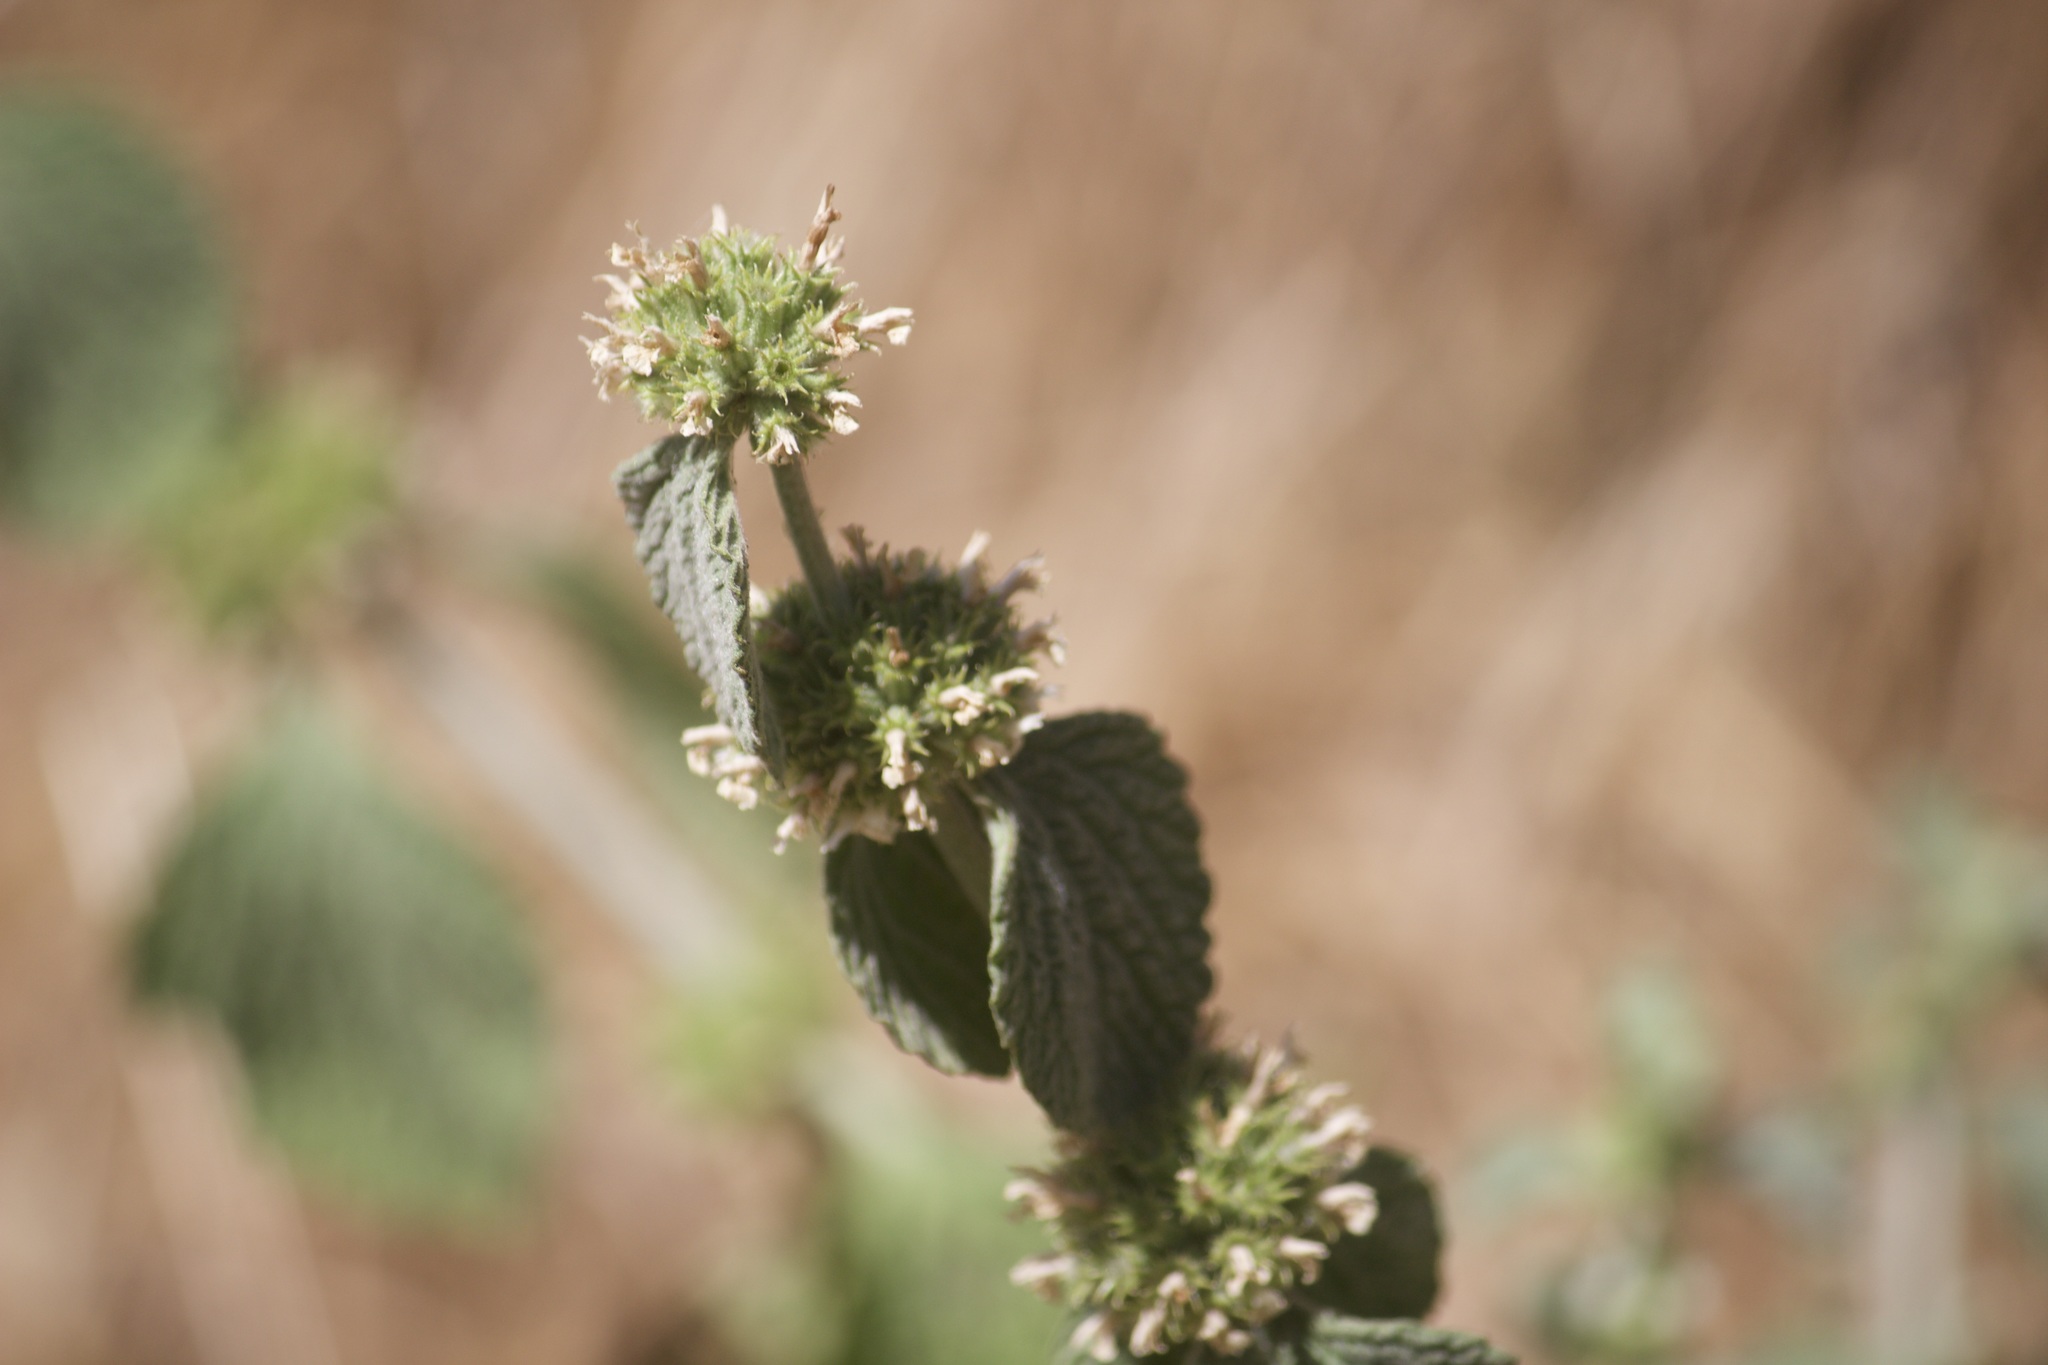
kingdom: Plantae
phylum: Tracheophyta
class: Magnoliopsida
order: Lamiales
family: Lamiaceae
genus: Marrubium
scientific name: Marrubium vulgare
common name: Horehound
